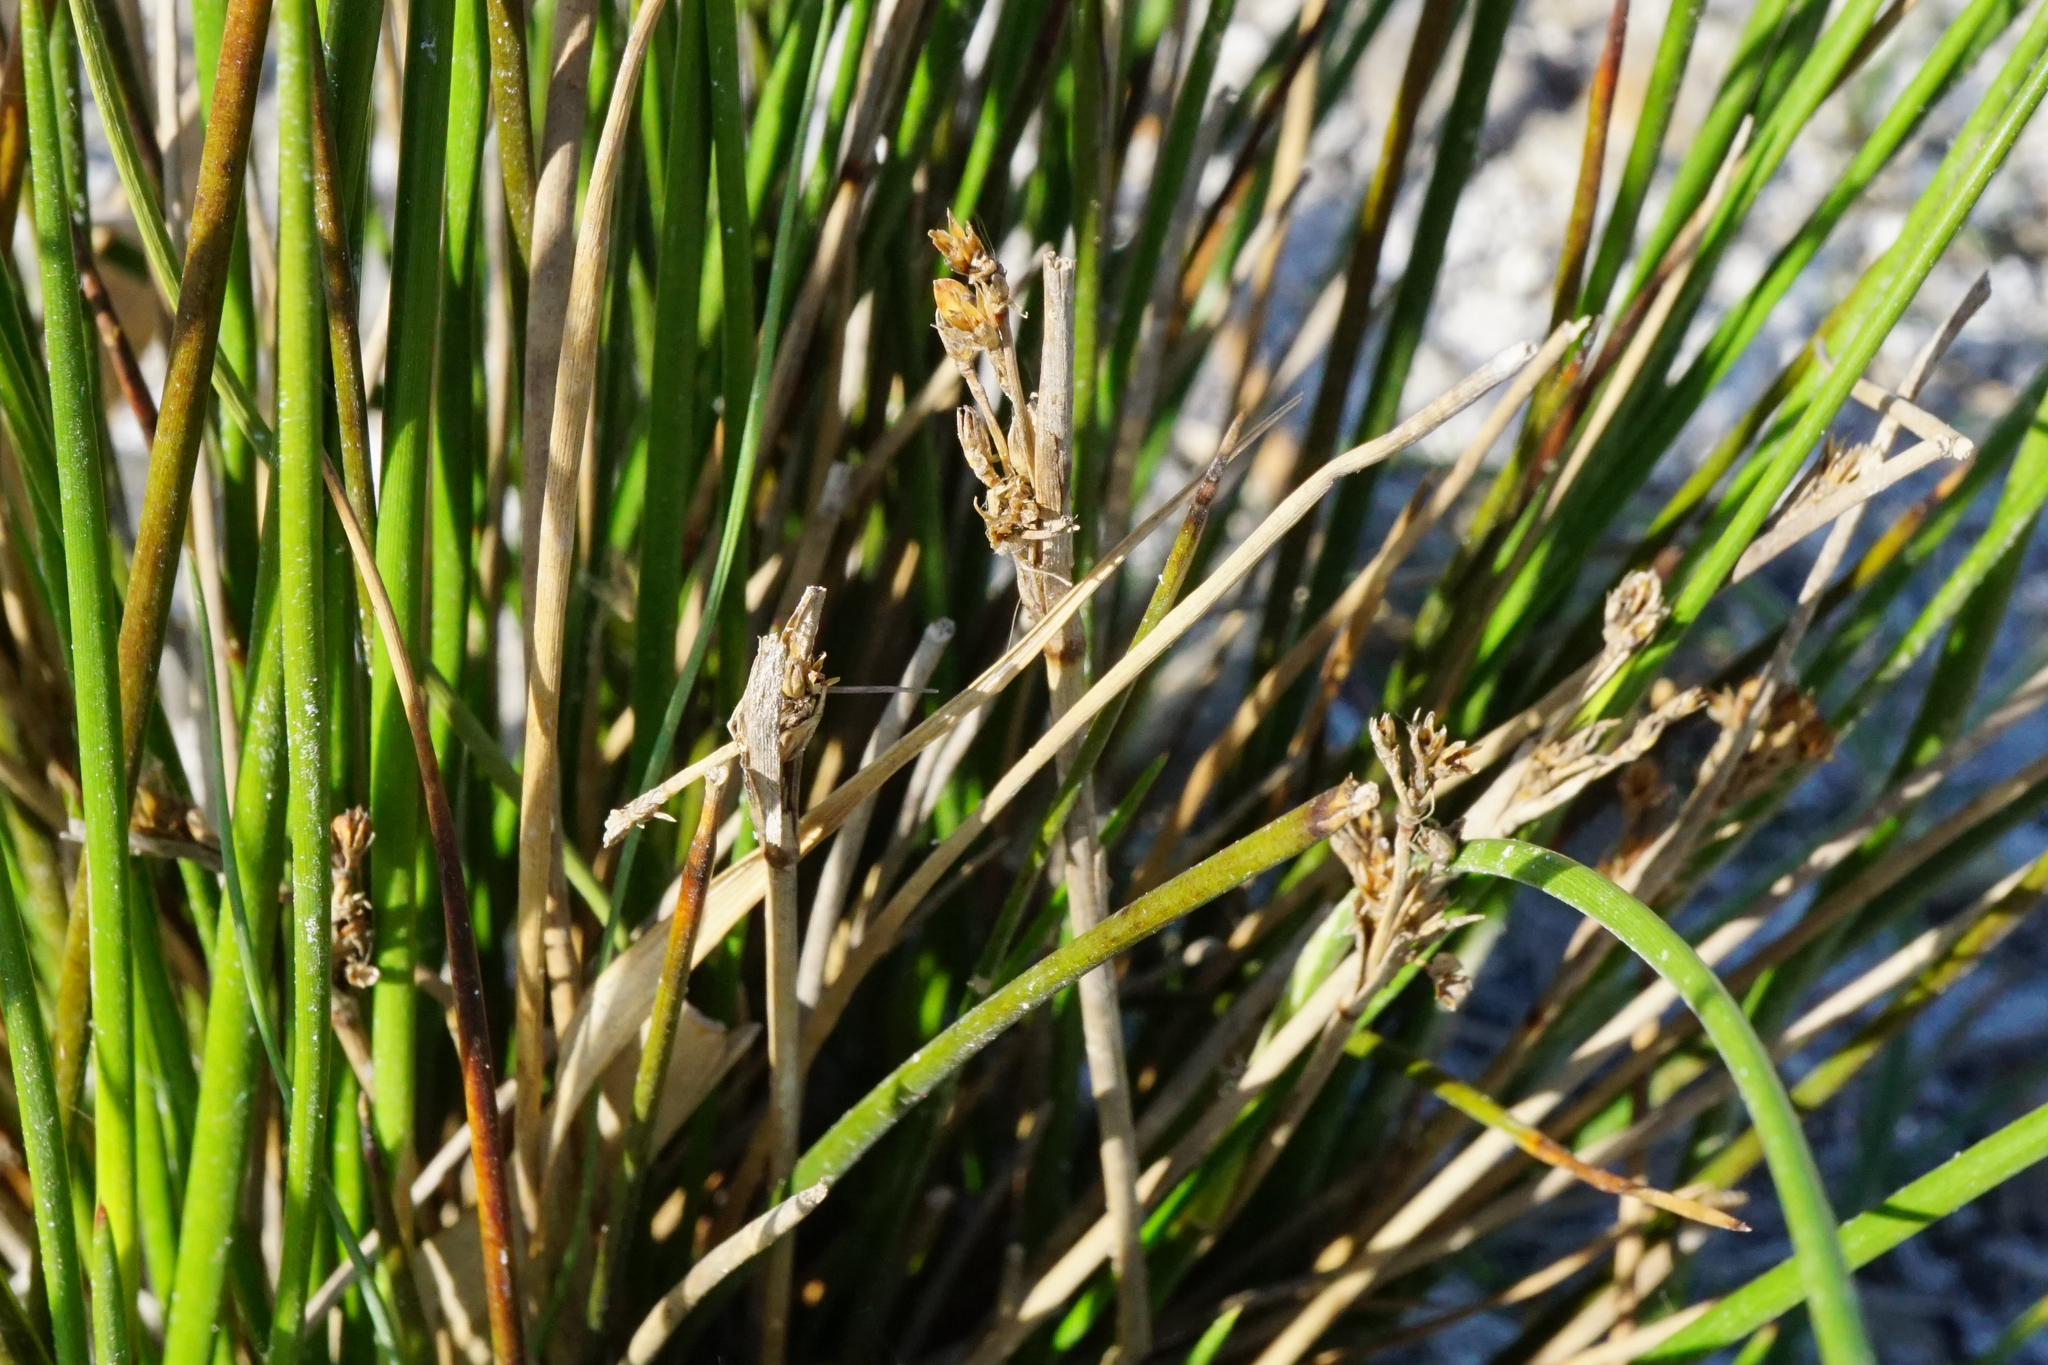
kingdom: Plantae
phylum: Tracheophyta
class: Liliopsida
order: Poales
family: Juncaceae
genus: Juncus
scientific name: Juncus maritimus
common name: Sea rush
